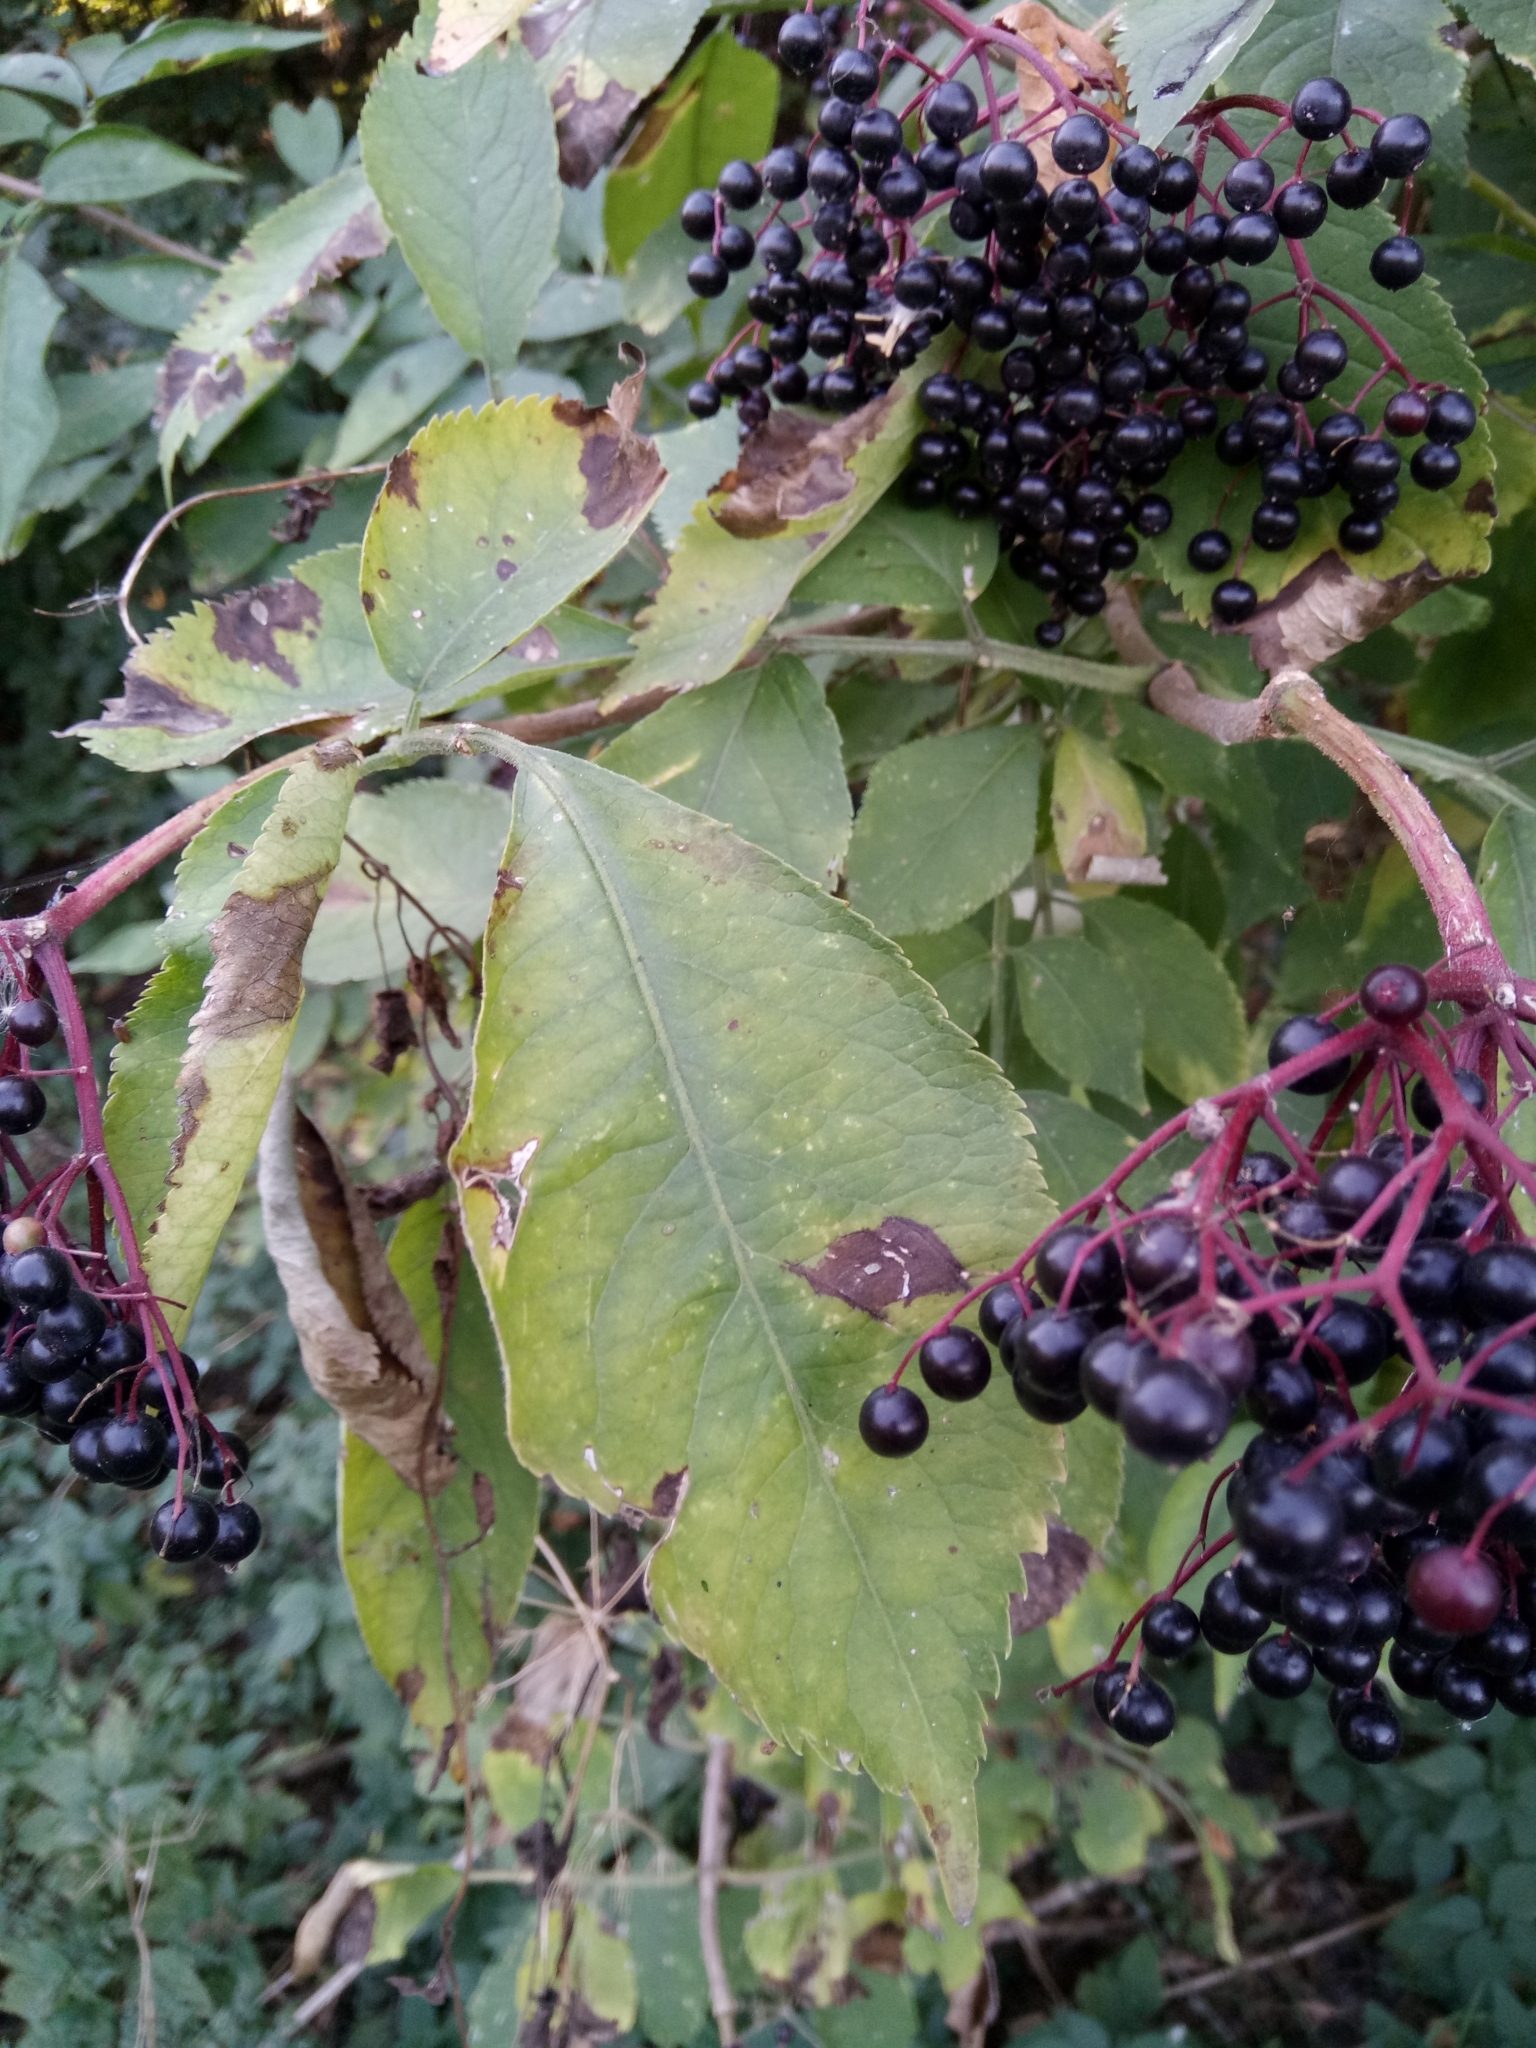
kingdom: Plantae
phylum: Tracheophyta
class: Magnoliopsida
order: Dipsacales
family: Viburnaceae
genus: Sambucus
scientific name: Sambucus nigra
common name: Elder
